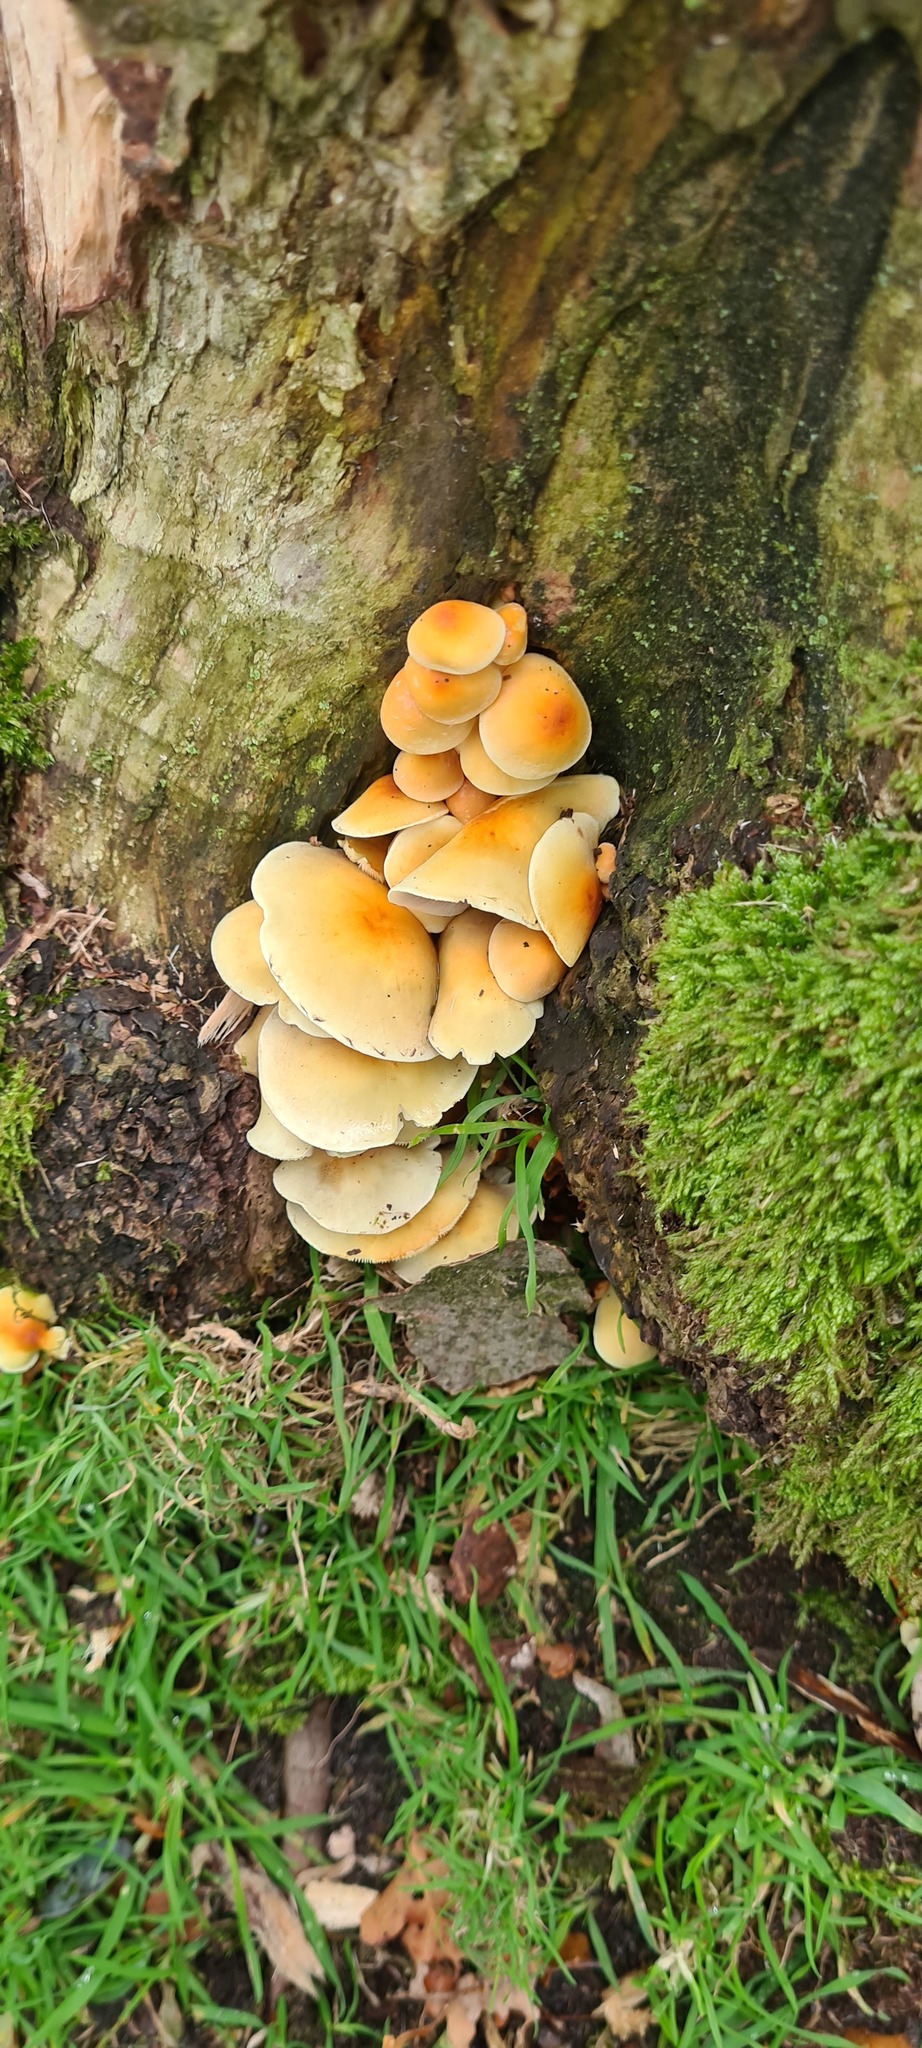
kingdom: Fungi
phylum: Basidiomycota
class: Agaricomycetes
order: Agaricales
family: Strophariaceae
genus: Hypholoma
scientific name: Hypholoma fasciculare
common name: Sulphur tuft
